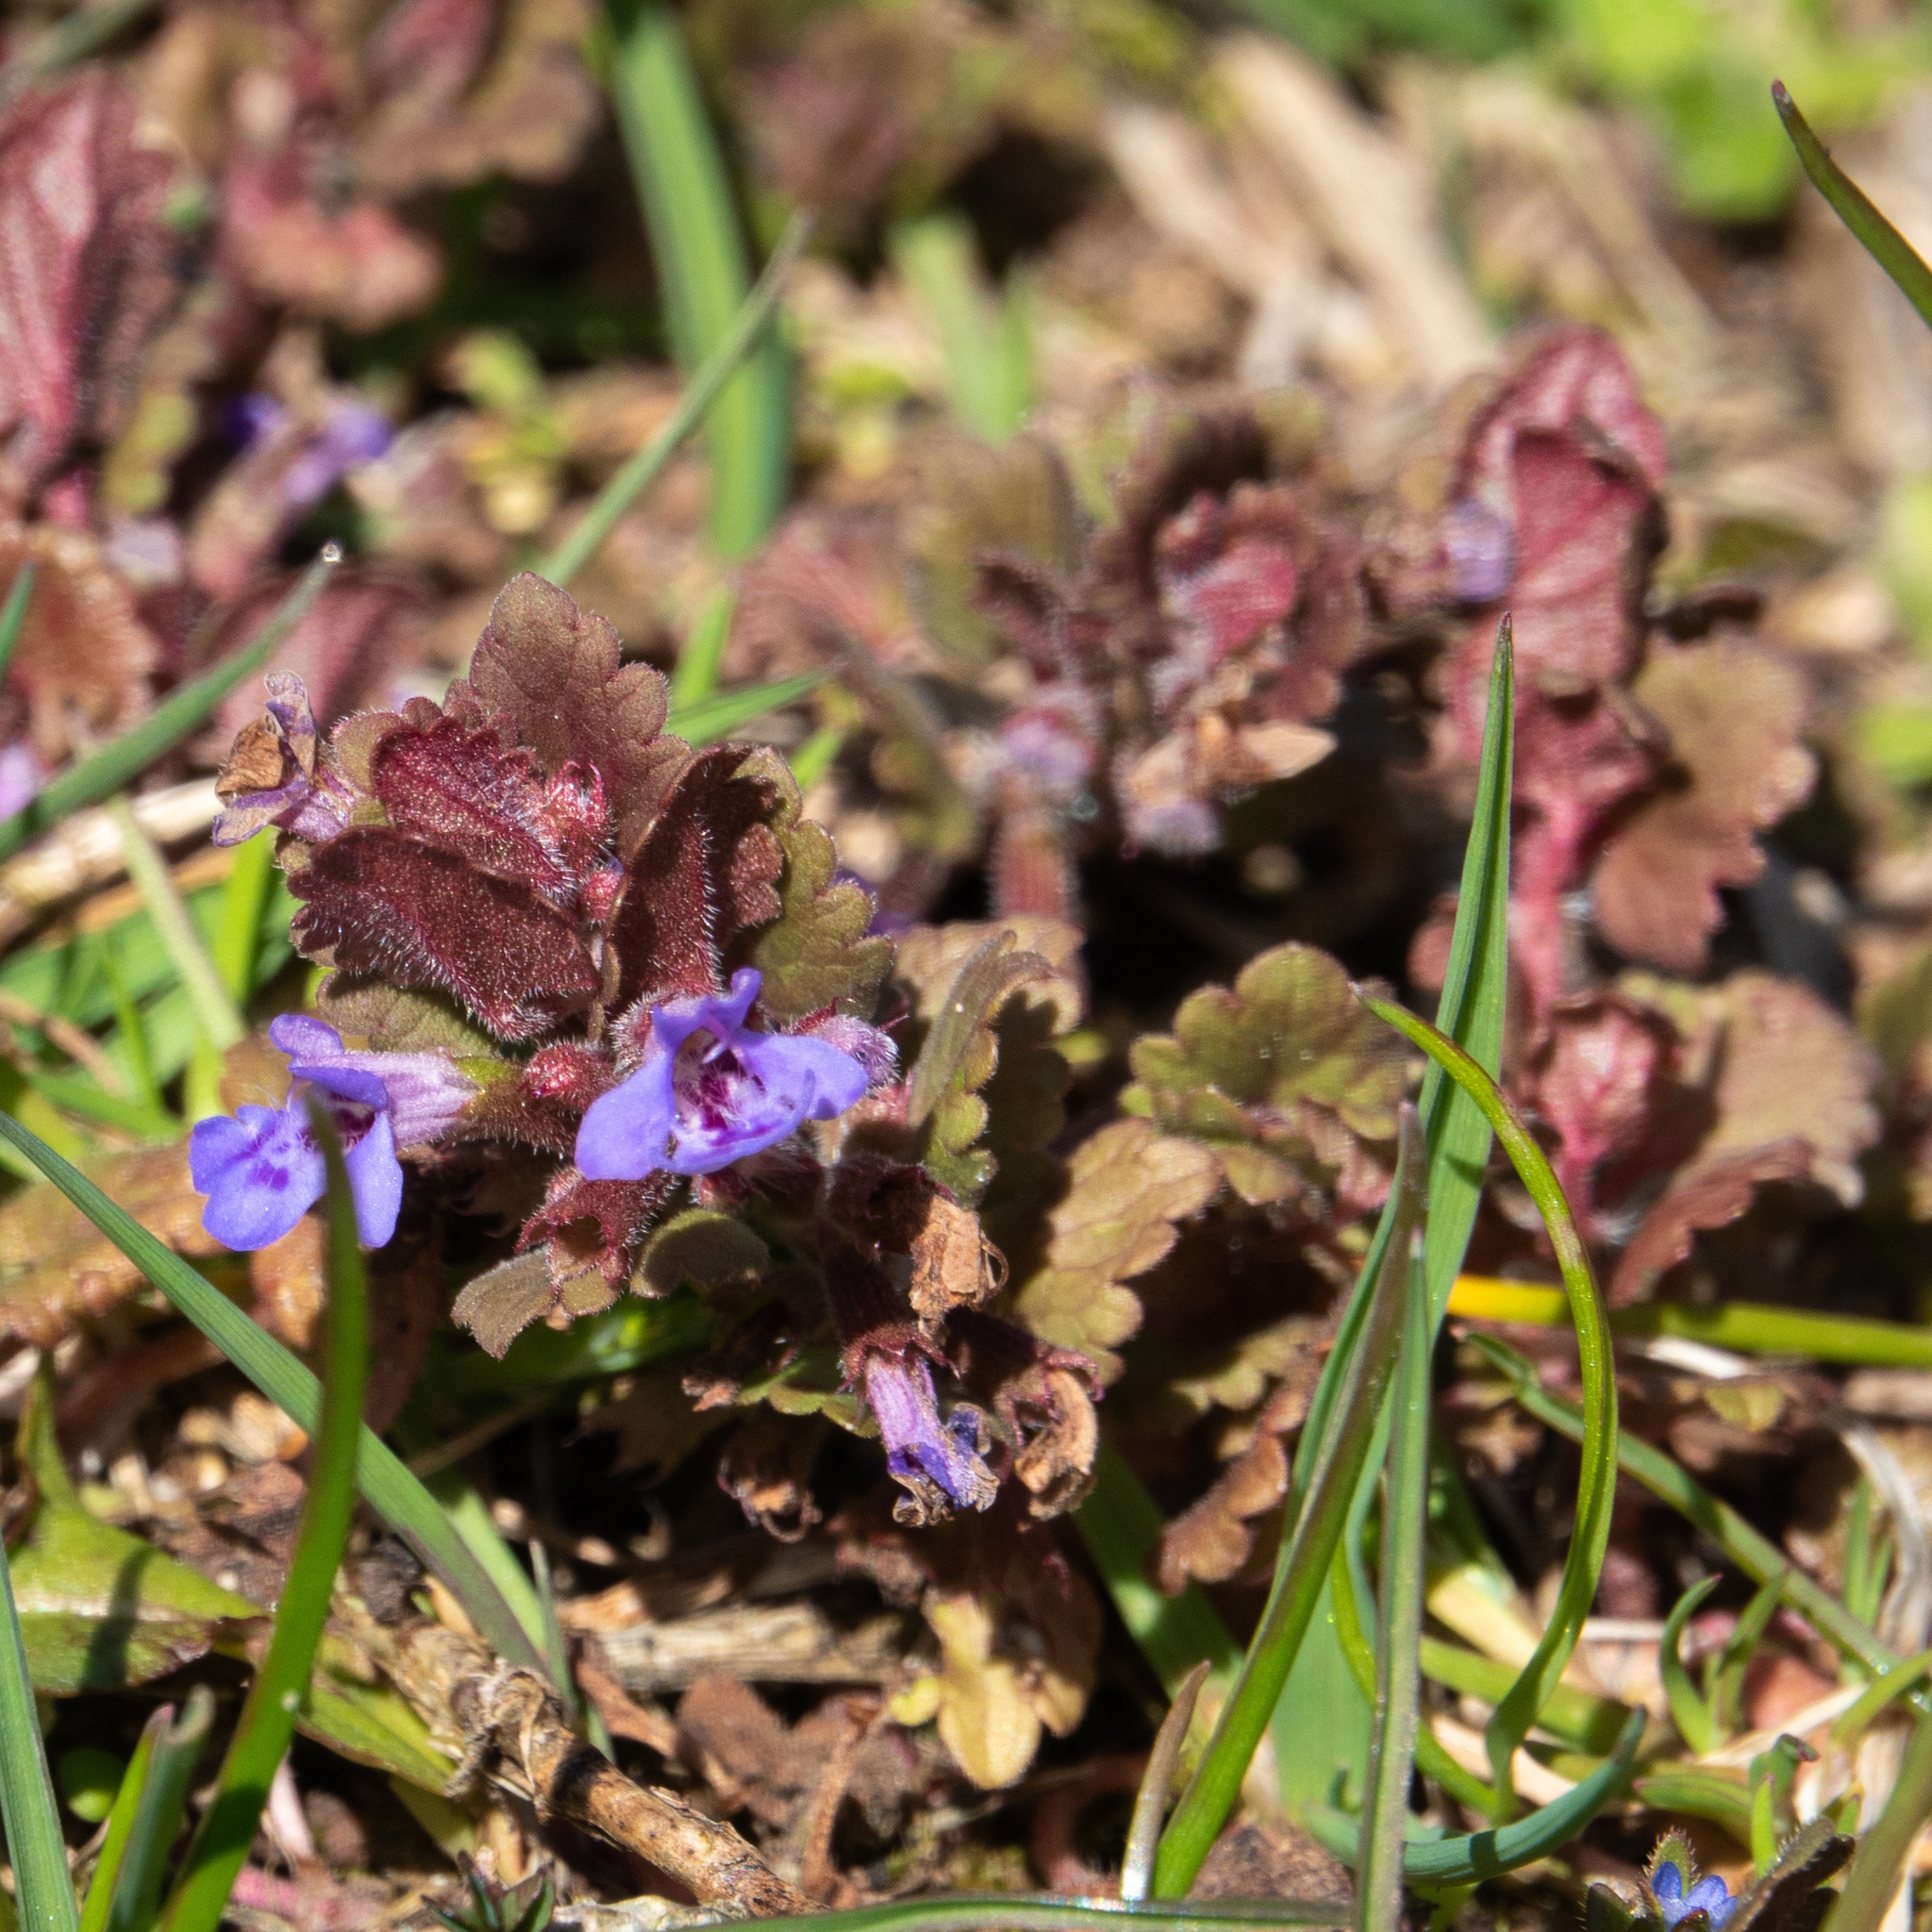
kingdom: Plantae
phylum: Tracheophyta
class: Magnoliopsida
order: Lamiales
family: Lamiaceae
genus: Glechoma
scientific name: Glechoma hederacea
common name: Ground ivy
